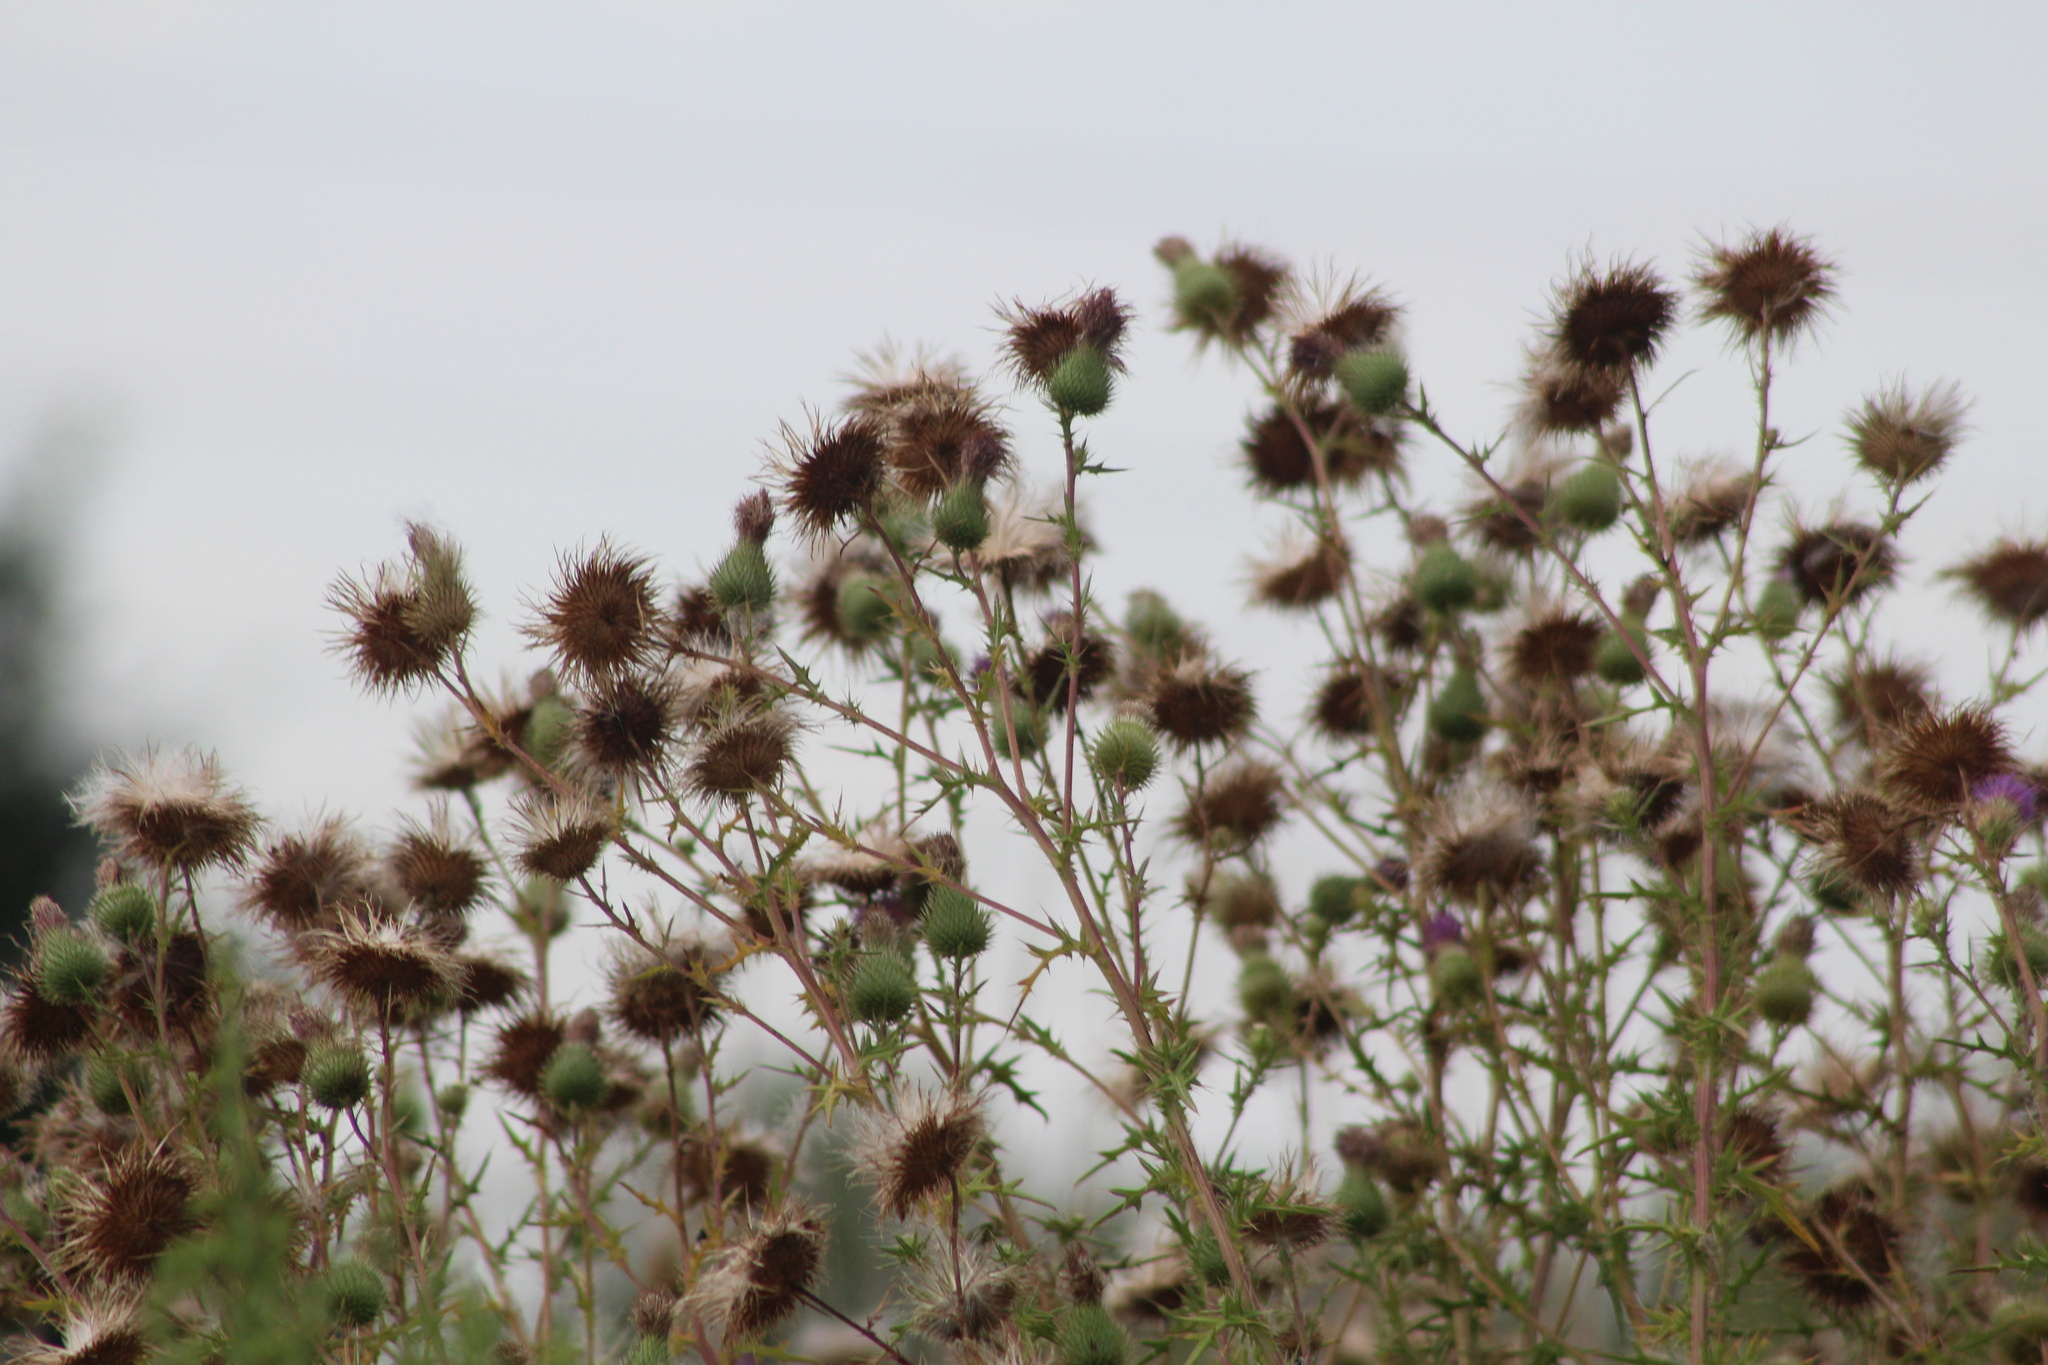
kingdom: Plantae
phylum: Tracheophyta
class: Magnoliopsida
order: Asterales
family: Asteraceae
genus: Cirsium
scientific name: Cirsium vulgare
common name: Bull thistle
